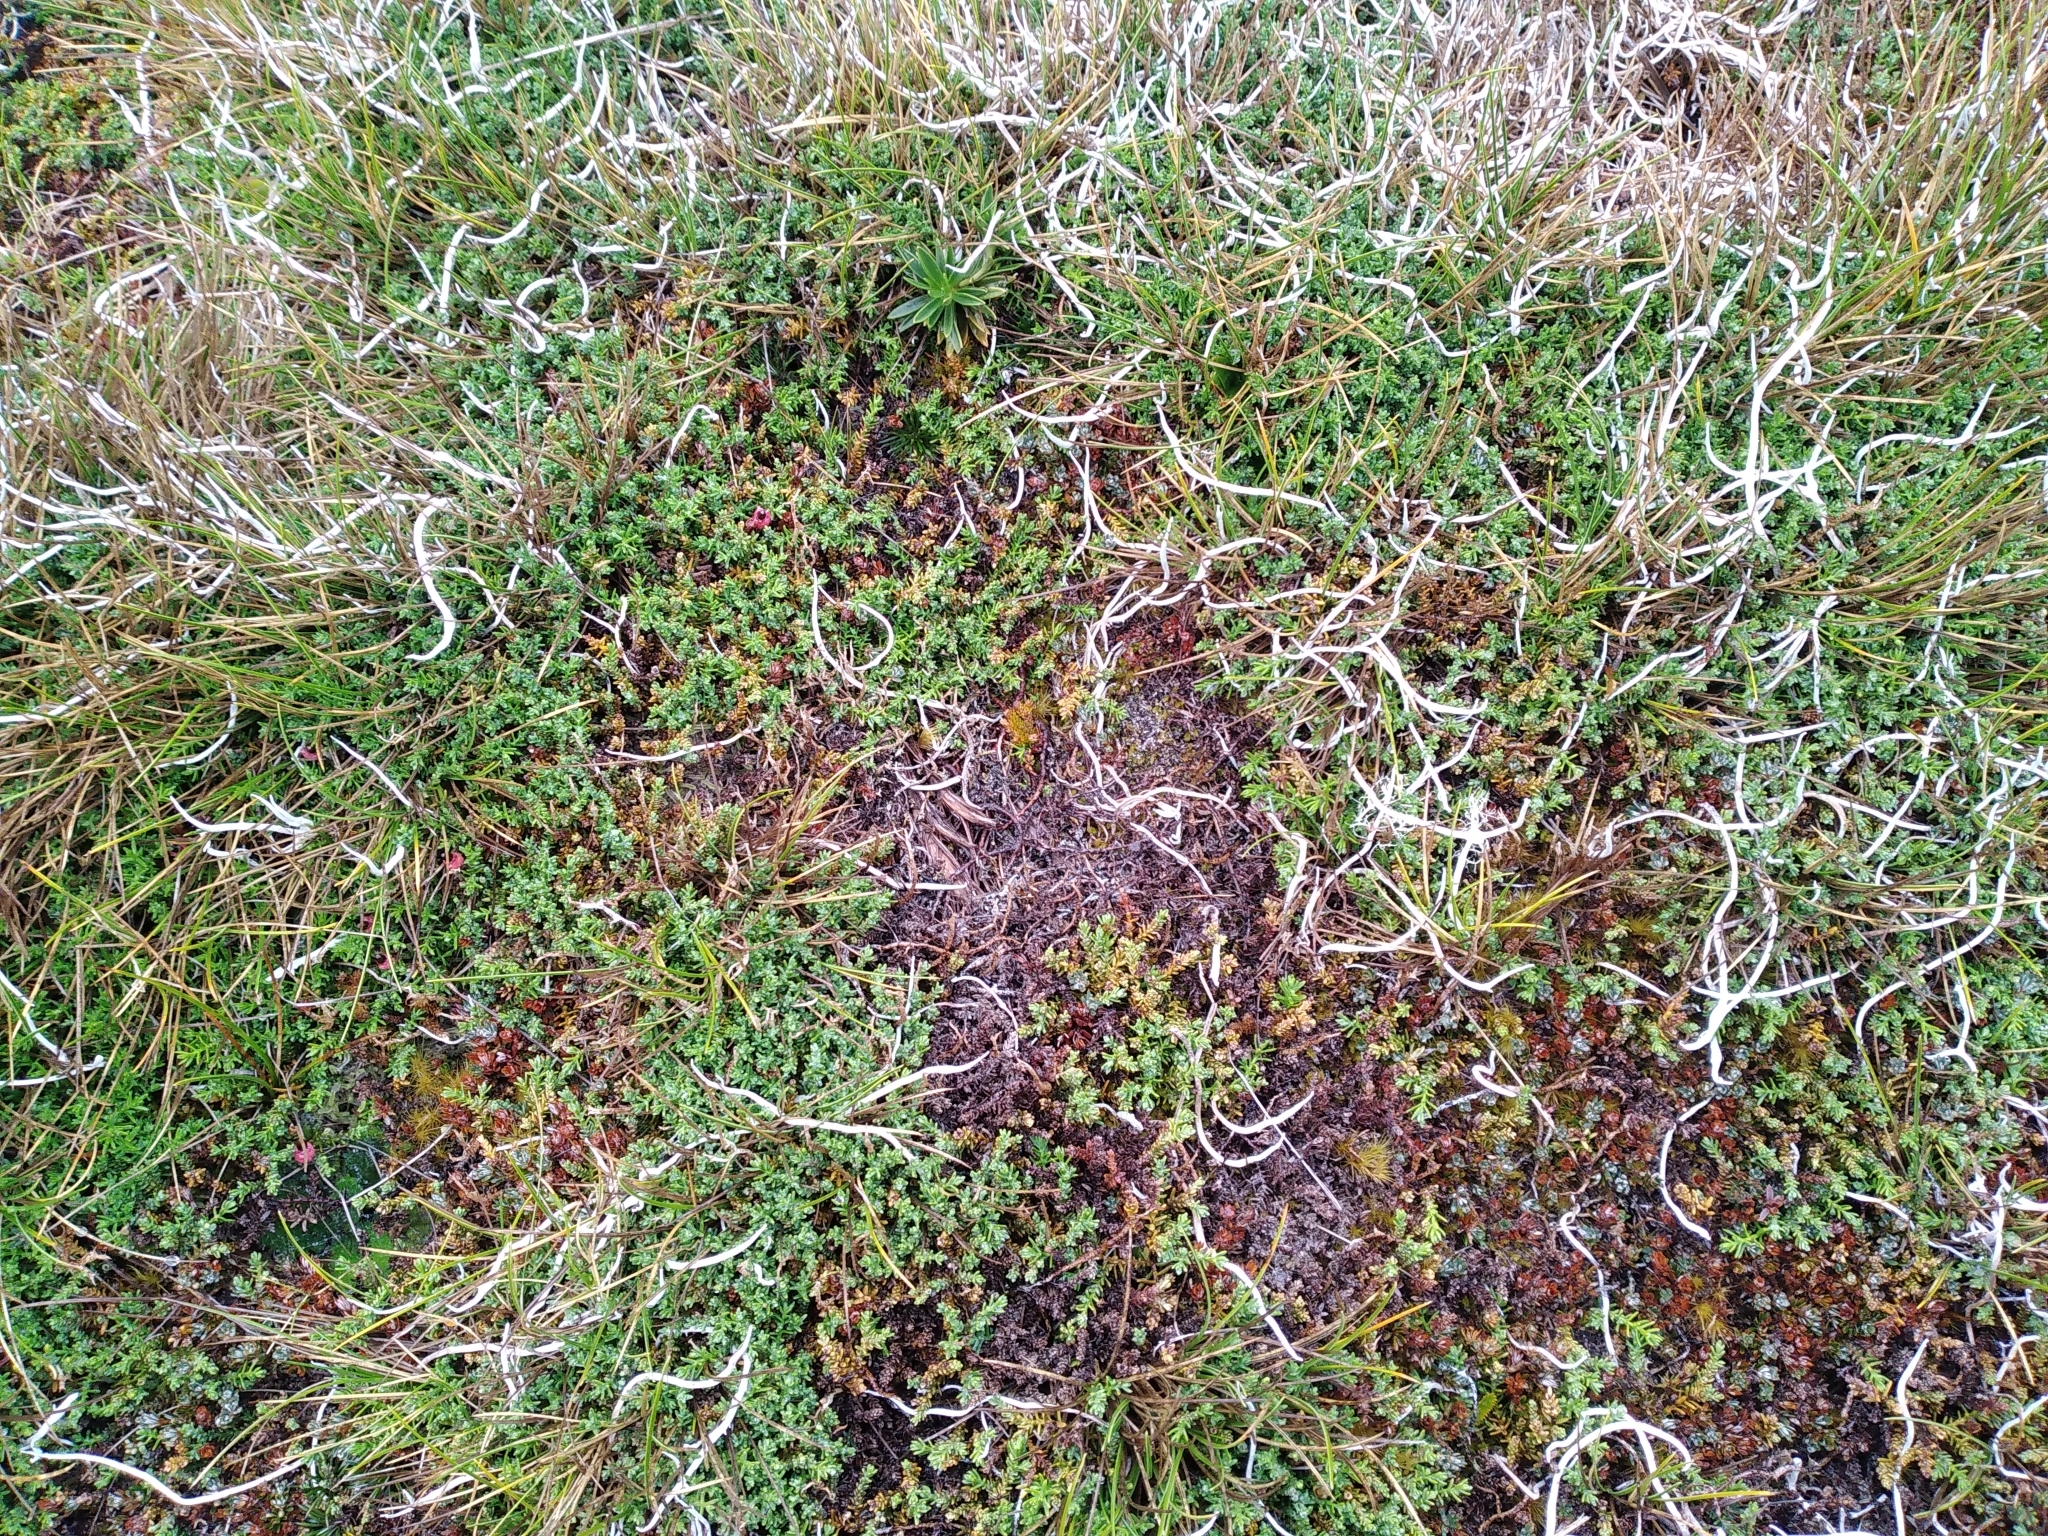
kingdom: Plantae
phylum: Tracheophyta
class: Pinopsida
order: Pinales
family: Podocarpaceae
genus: Lepidothamnus
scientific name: Lepidothamnus laxifolius
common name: Pygmy pine
